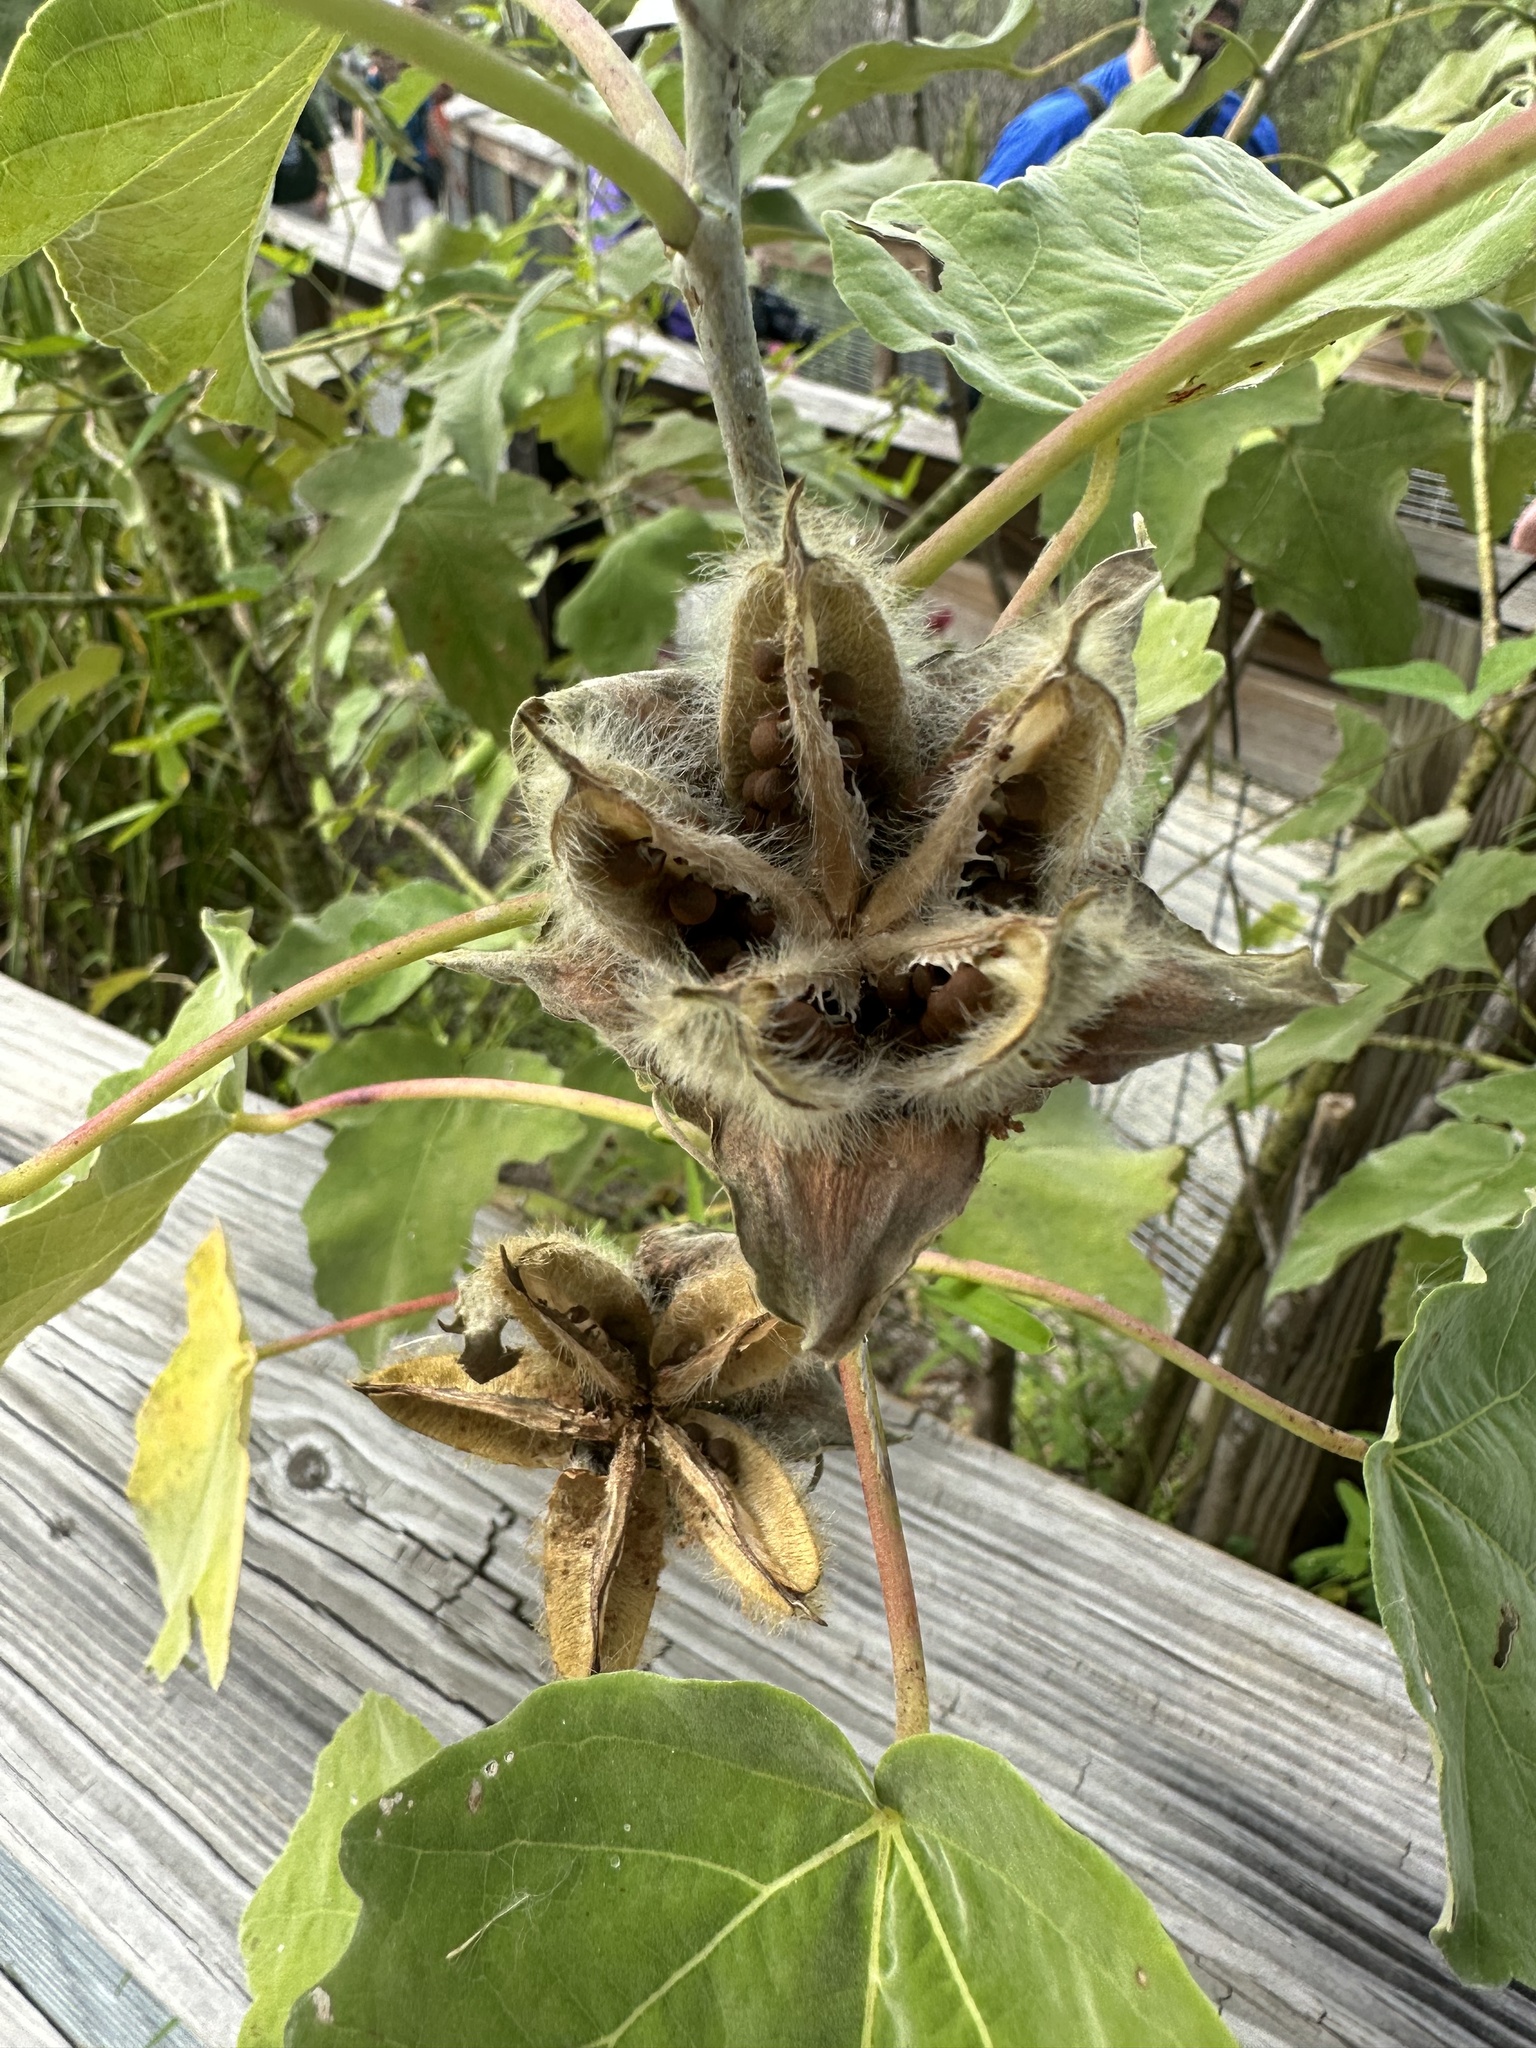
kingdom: Plantae
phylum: Tracheophyta
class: Magnoliopsida
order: Malvales
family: Malvaceae
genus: Hibiscus
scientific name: Hibiscus grandiflorus
